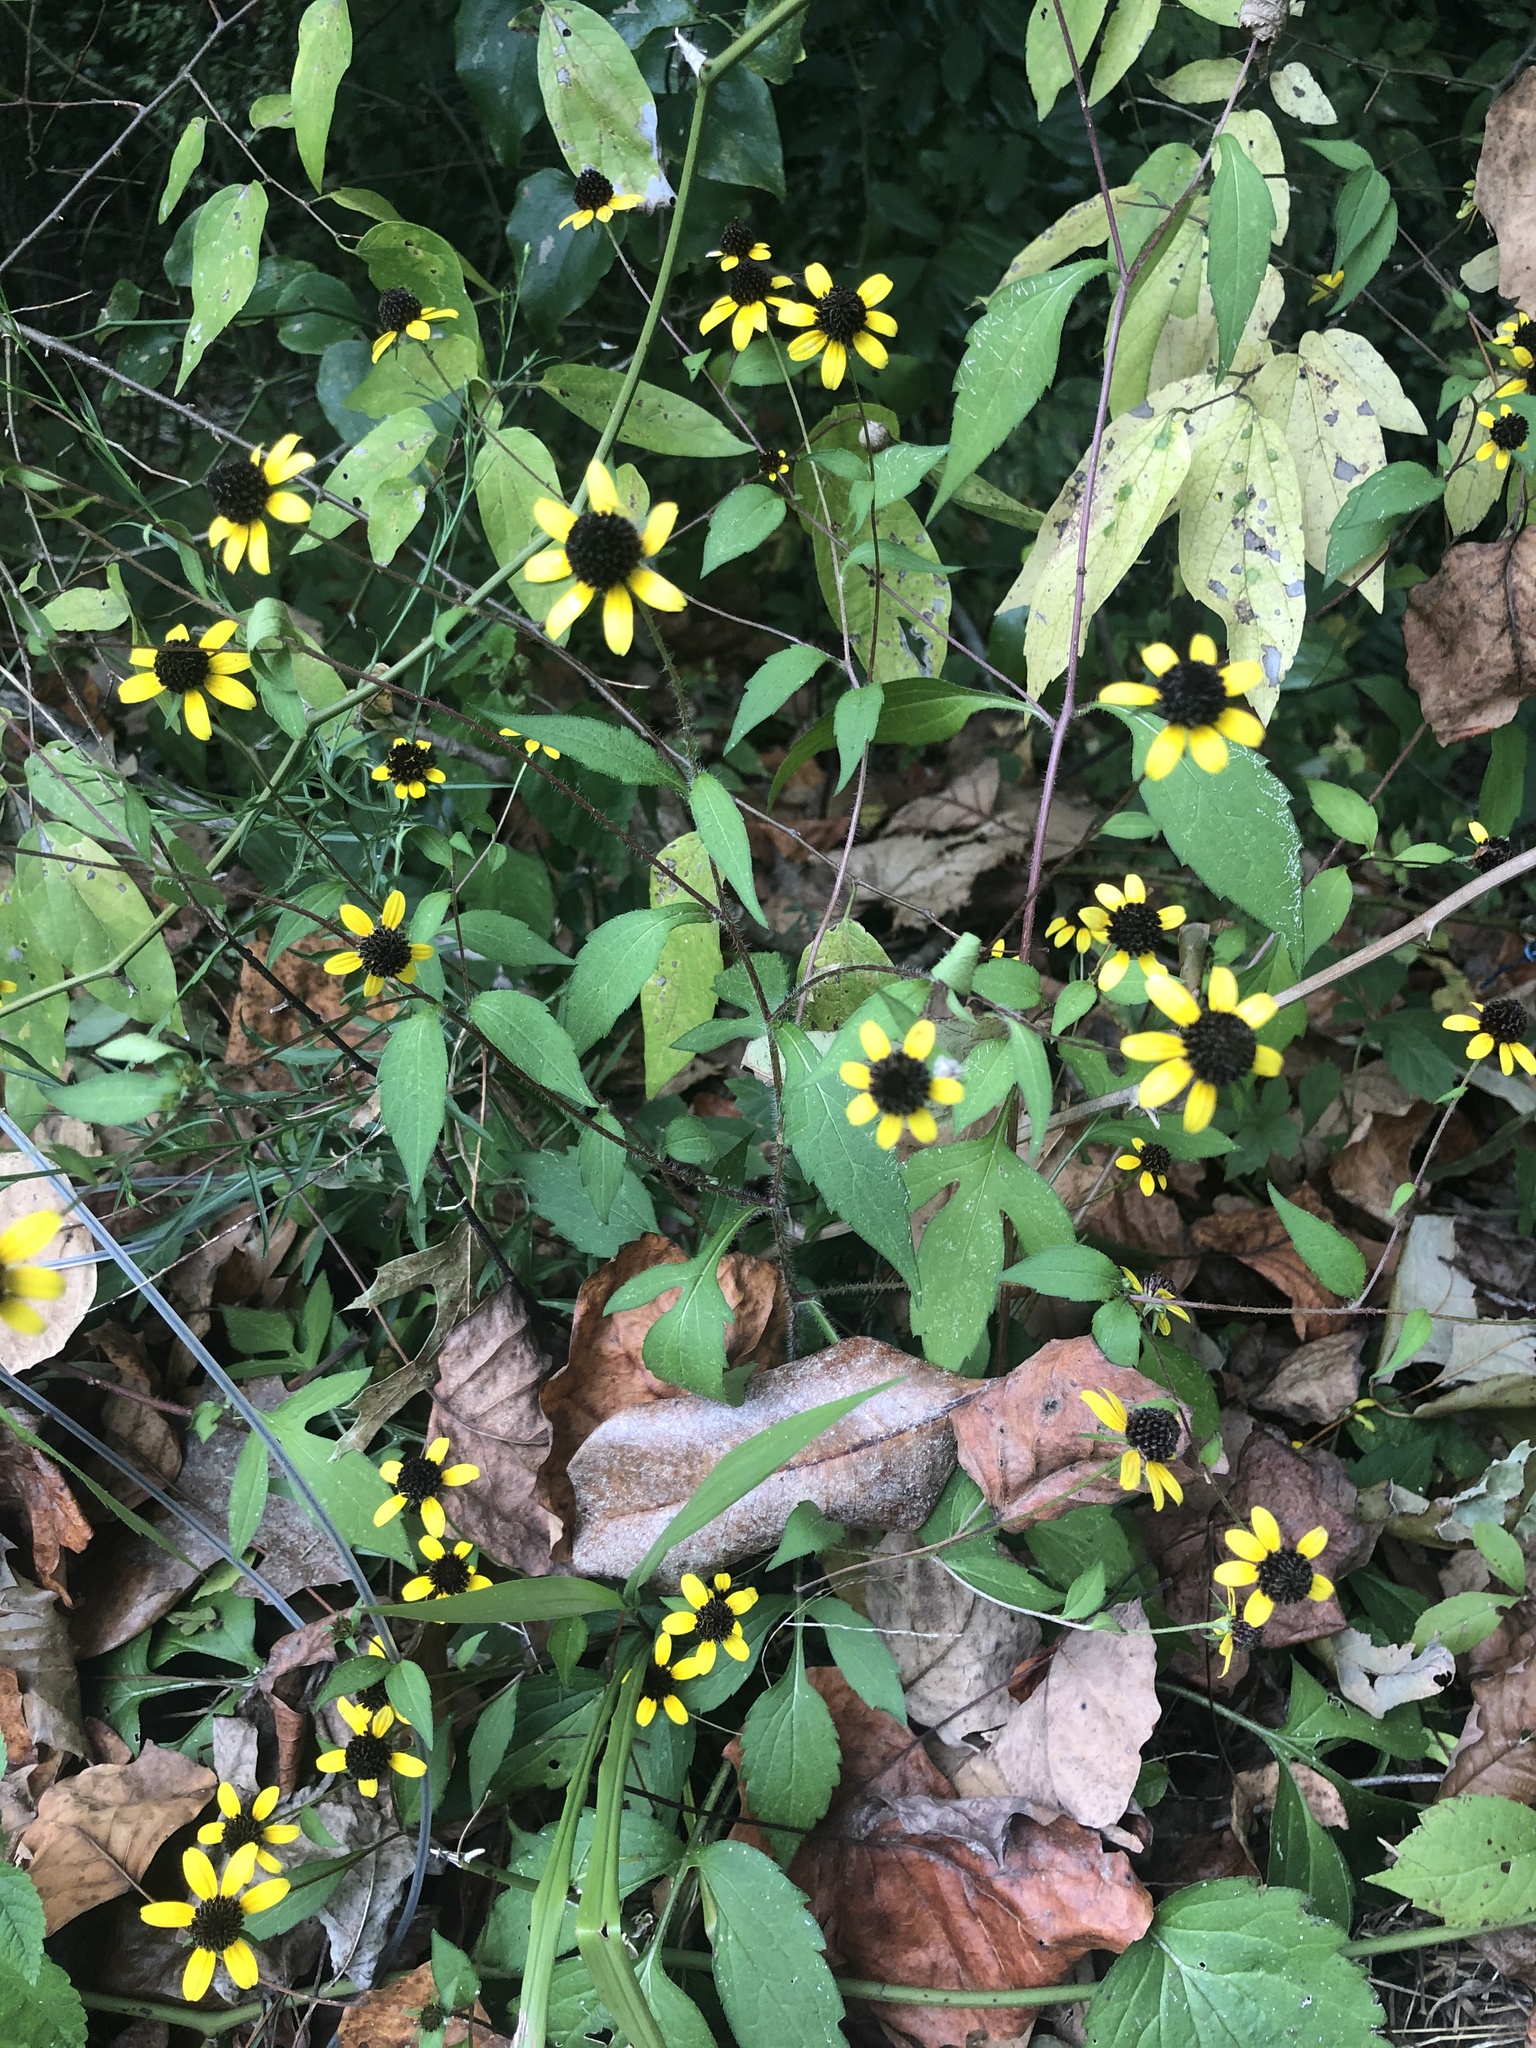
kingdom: Plantae
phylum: Tracheophyta
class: Magnoliopsida
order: Asterales
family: Asteraceae
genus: Rudbeckia
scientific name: Rudbeckia triloba
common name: Thin-leaved coneflower
